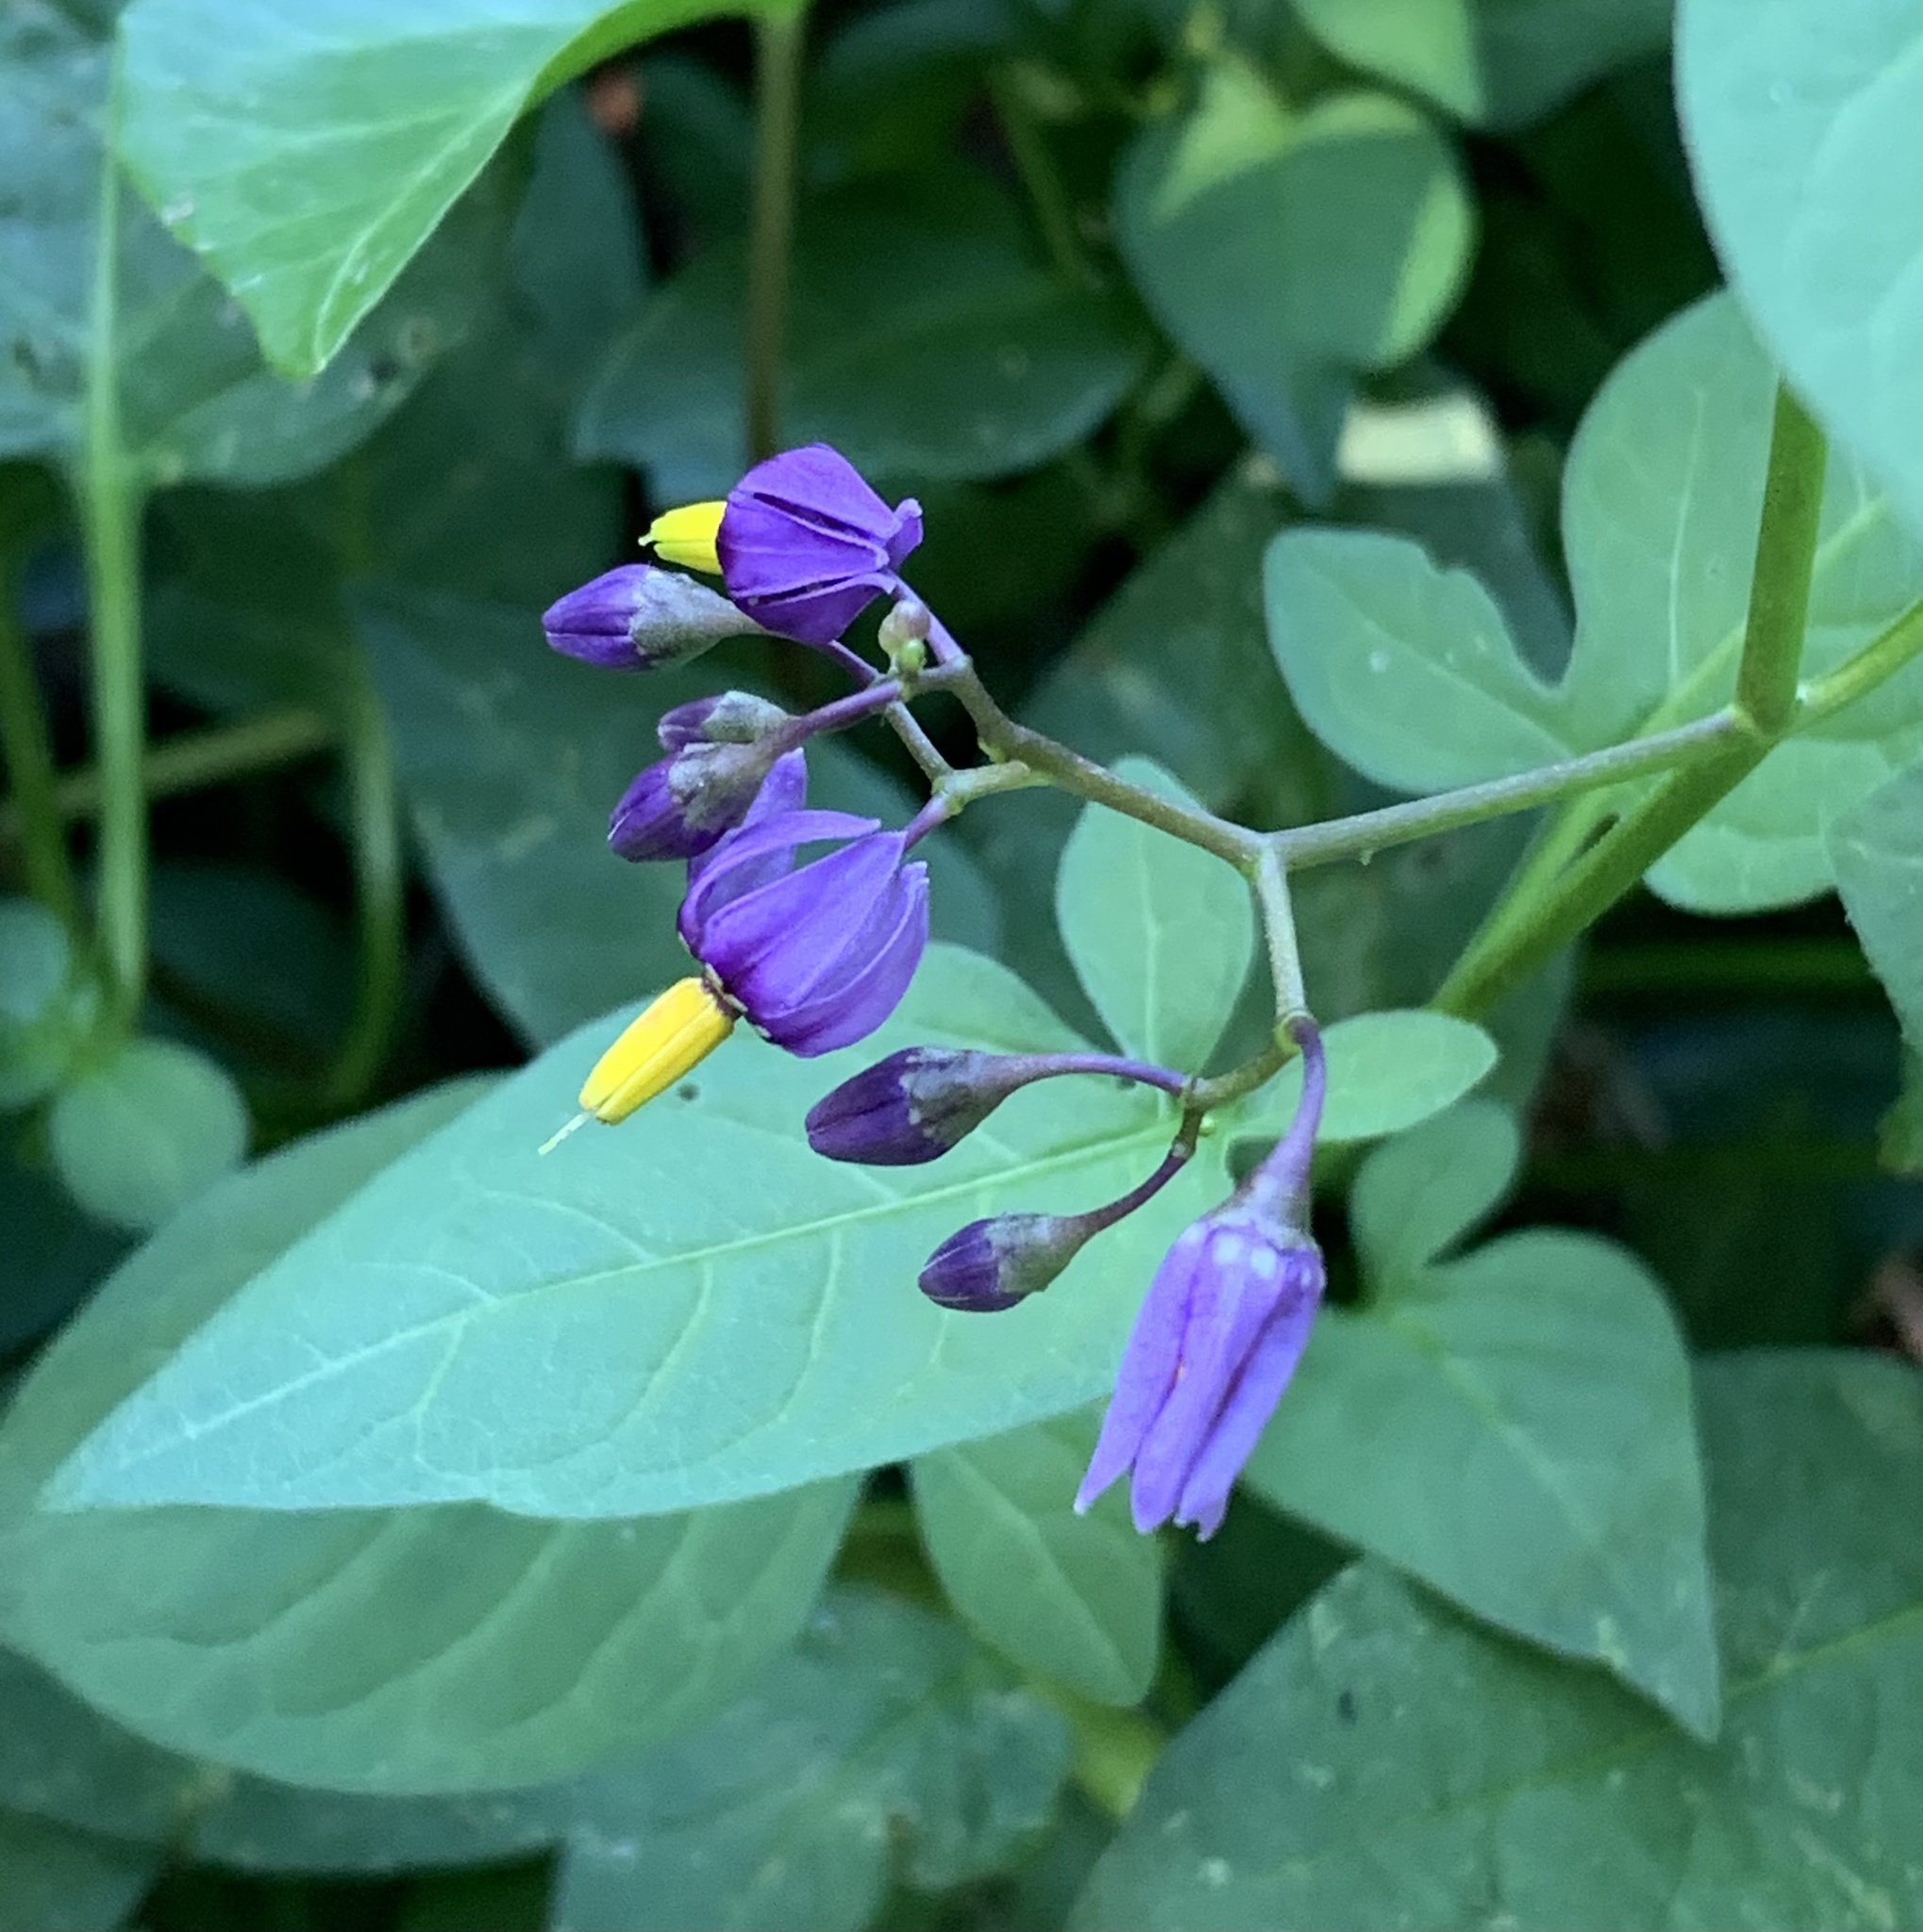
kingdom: Plantae
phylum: Tracheophyta
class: Magnoliopsida
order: Solanales
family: Solanaceae
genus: Solanum
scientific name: Solanum dulcamara
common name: Climbing nightshade
